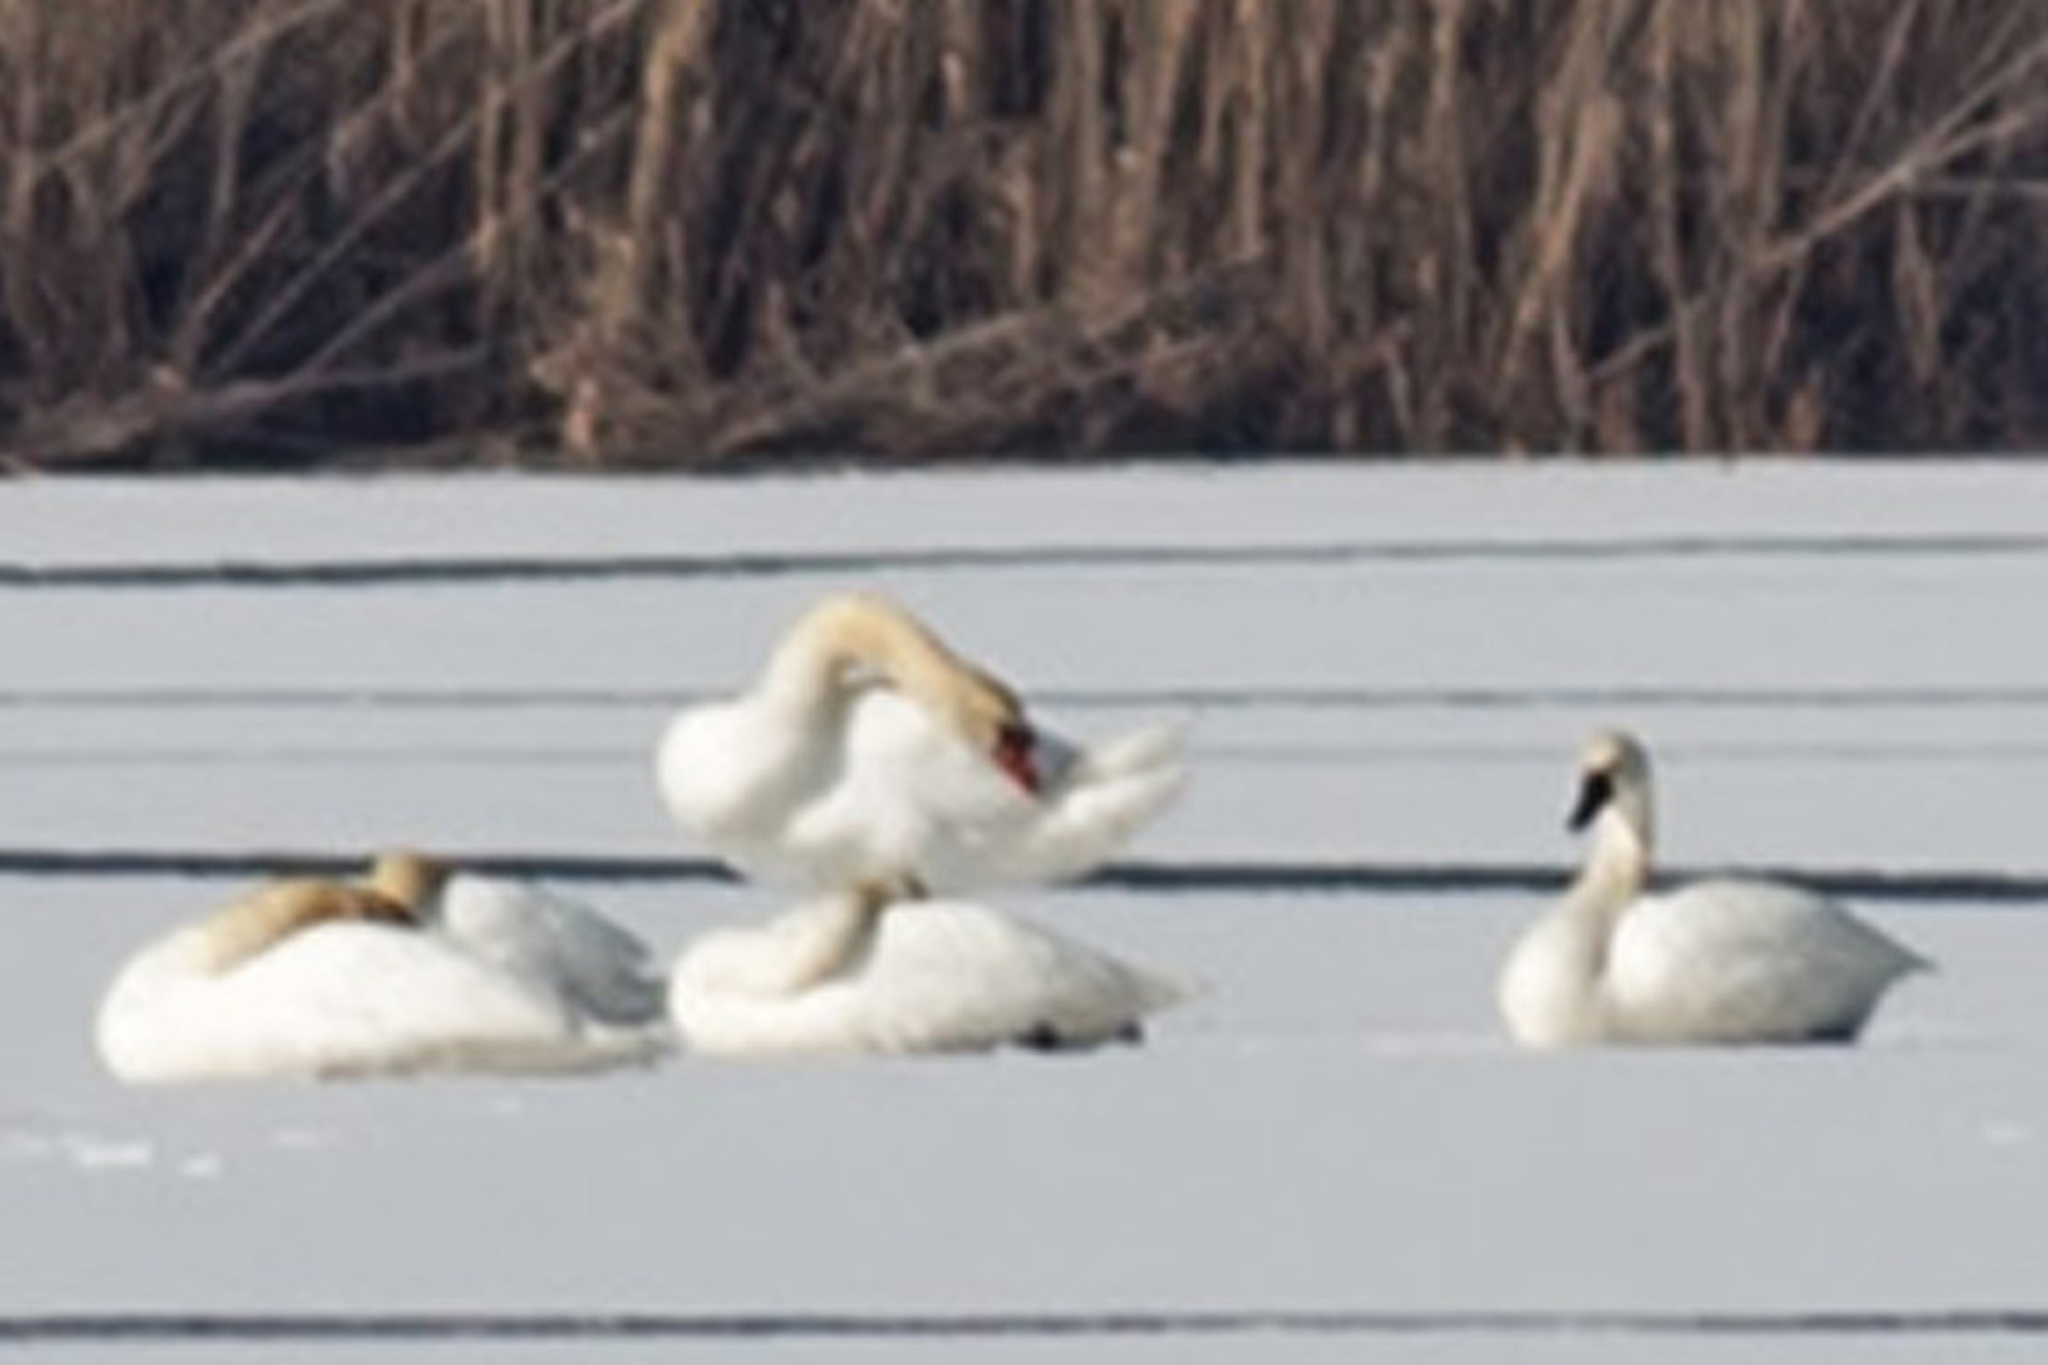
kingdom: Animalia
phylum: Chordata
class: Aves
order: Anseriformes
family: Anatidae
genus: Cygnus
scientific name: Cygnus buccinator
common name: Trumpeter swan
